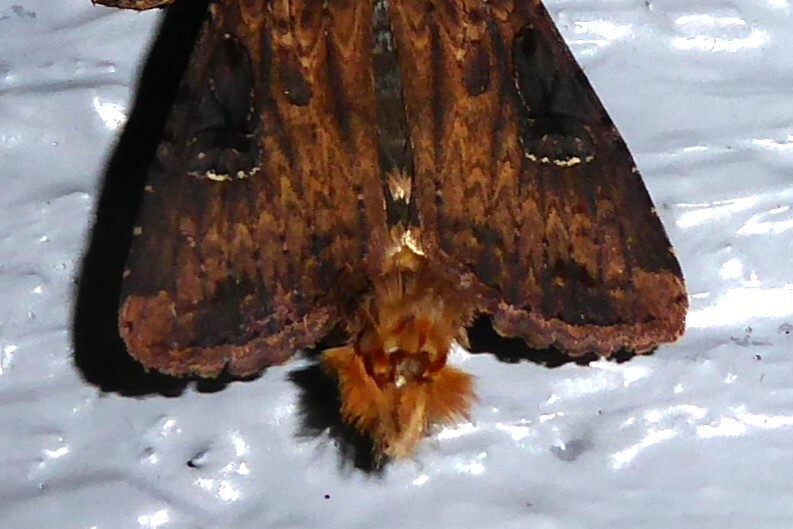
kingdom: Animalia
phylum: Arthropoda
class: Insecta
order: Lepidoptera
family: Noctuidae
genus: Ichneutica
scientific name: Ichneutica omoplaca
